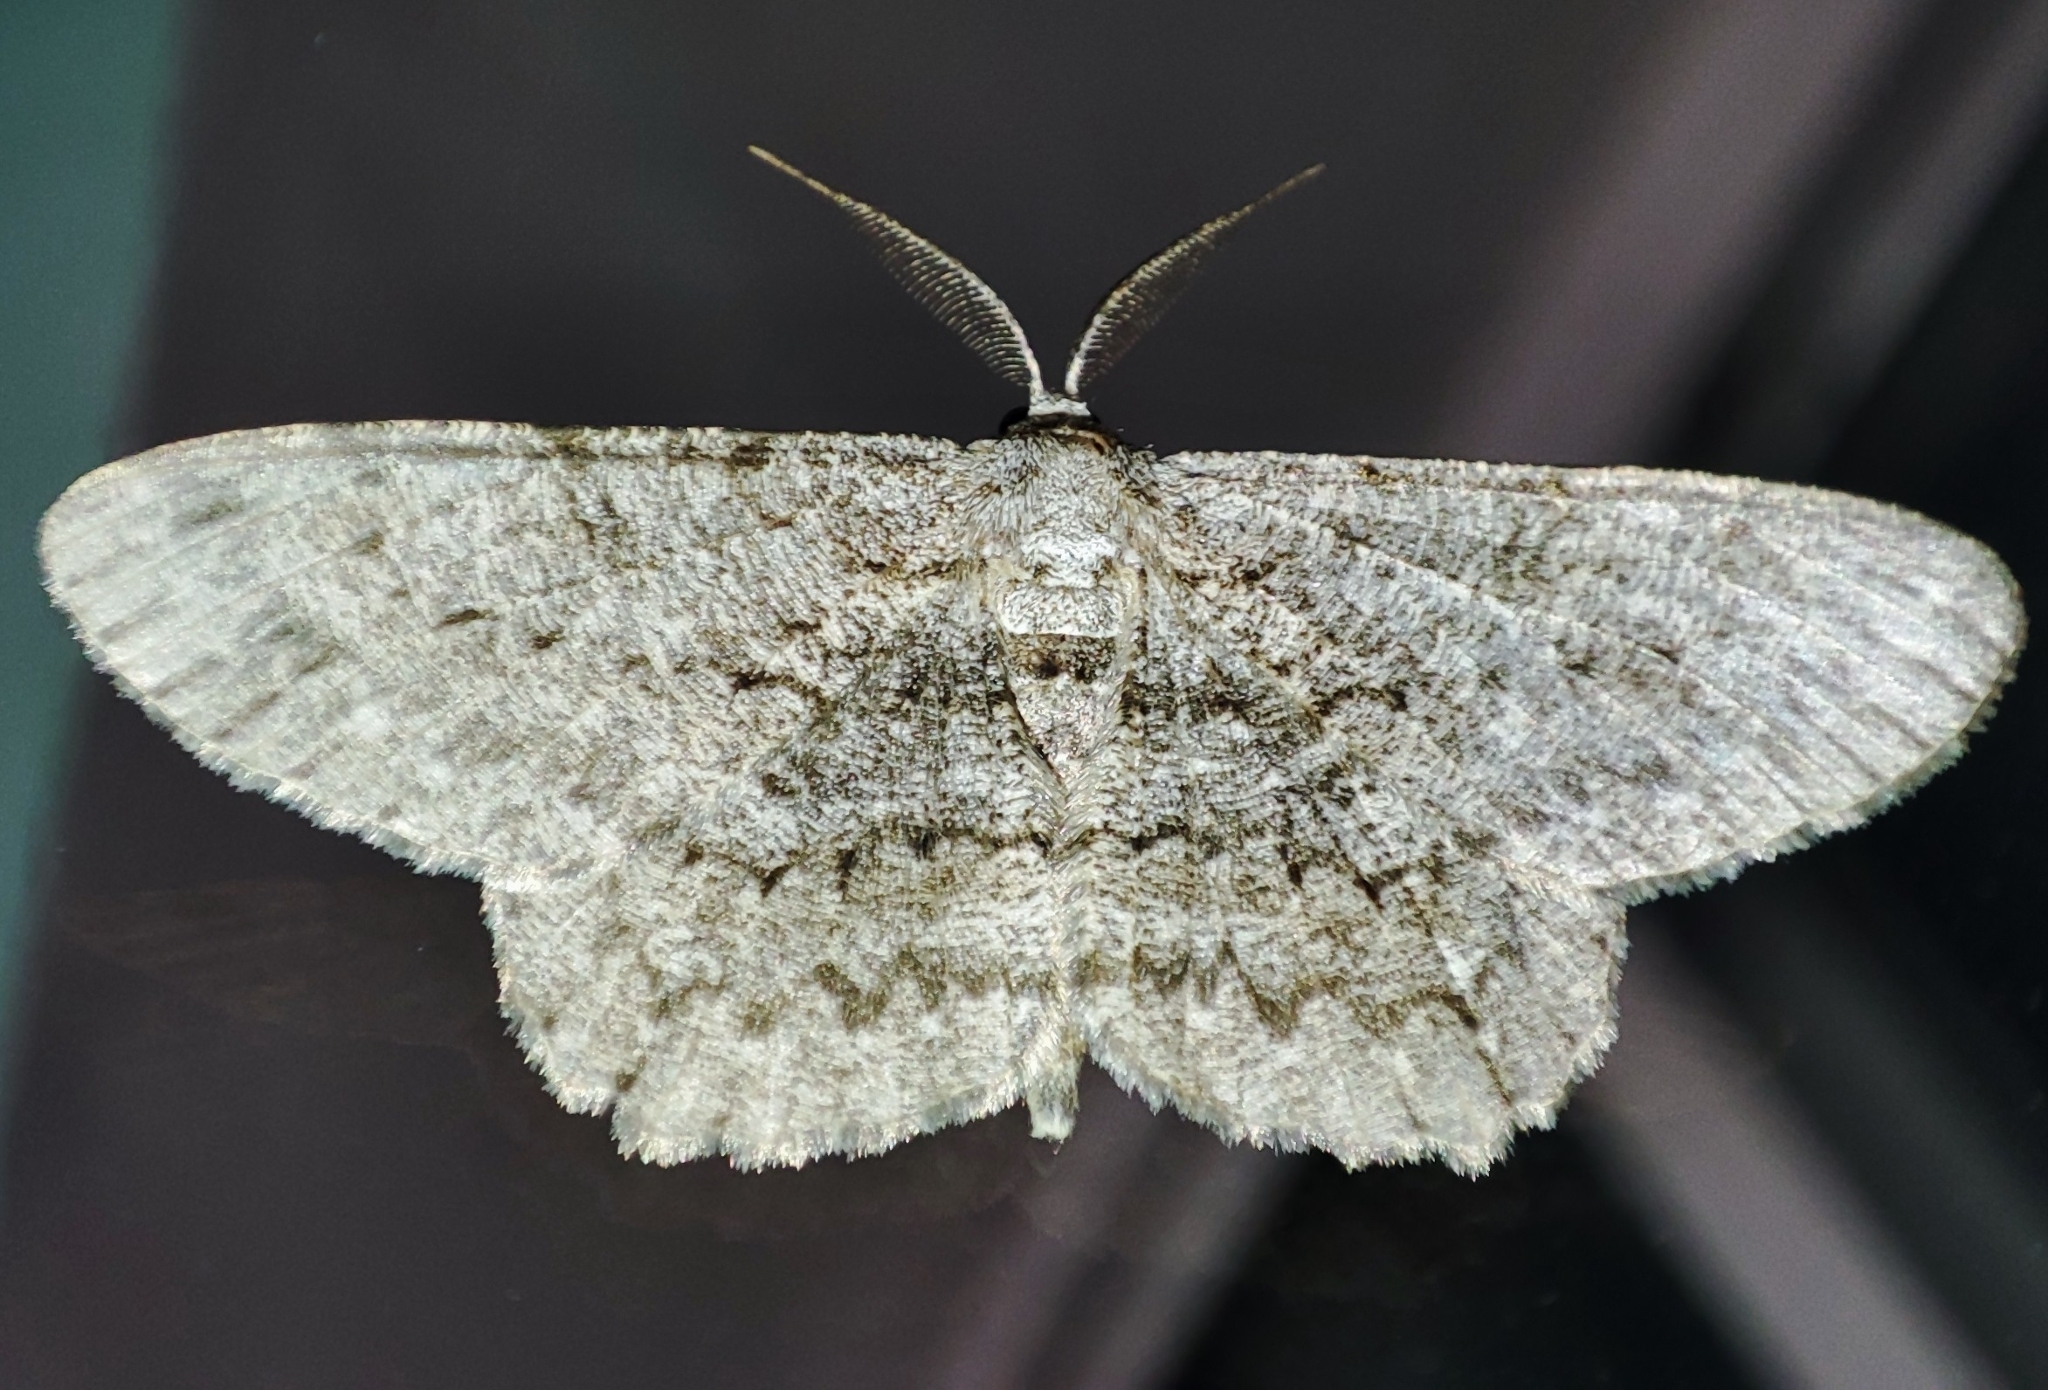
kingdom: Animalia
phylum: Arthropoda
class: Insecta
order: Lepidoptera
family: Geometridae
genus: Hypomecis
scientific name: Hypomecis punctinalis
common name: Pale oak beauty
